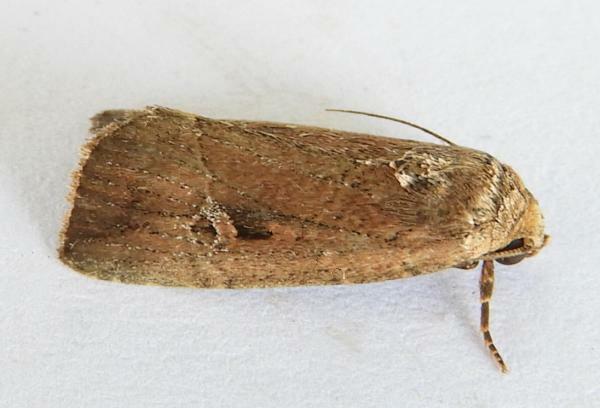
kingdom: Animalia
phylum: Arthropoda
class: Insecta
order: Lepidoptera
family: Noctuidae
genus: Elaphria
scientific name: Elaphria nucicolora
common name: Sugarcane midget moth
